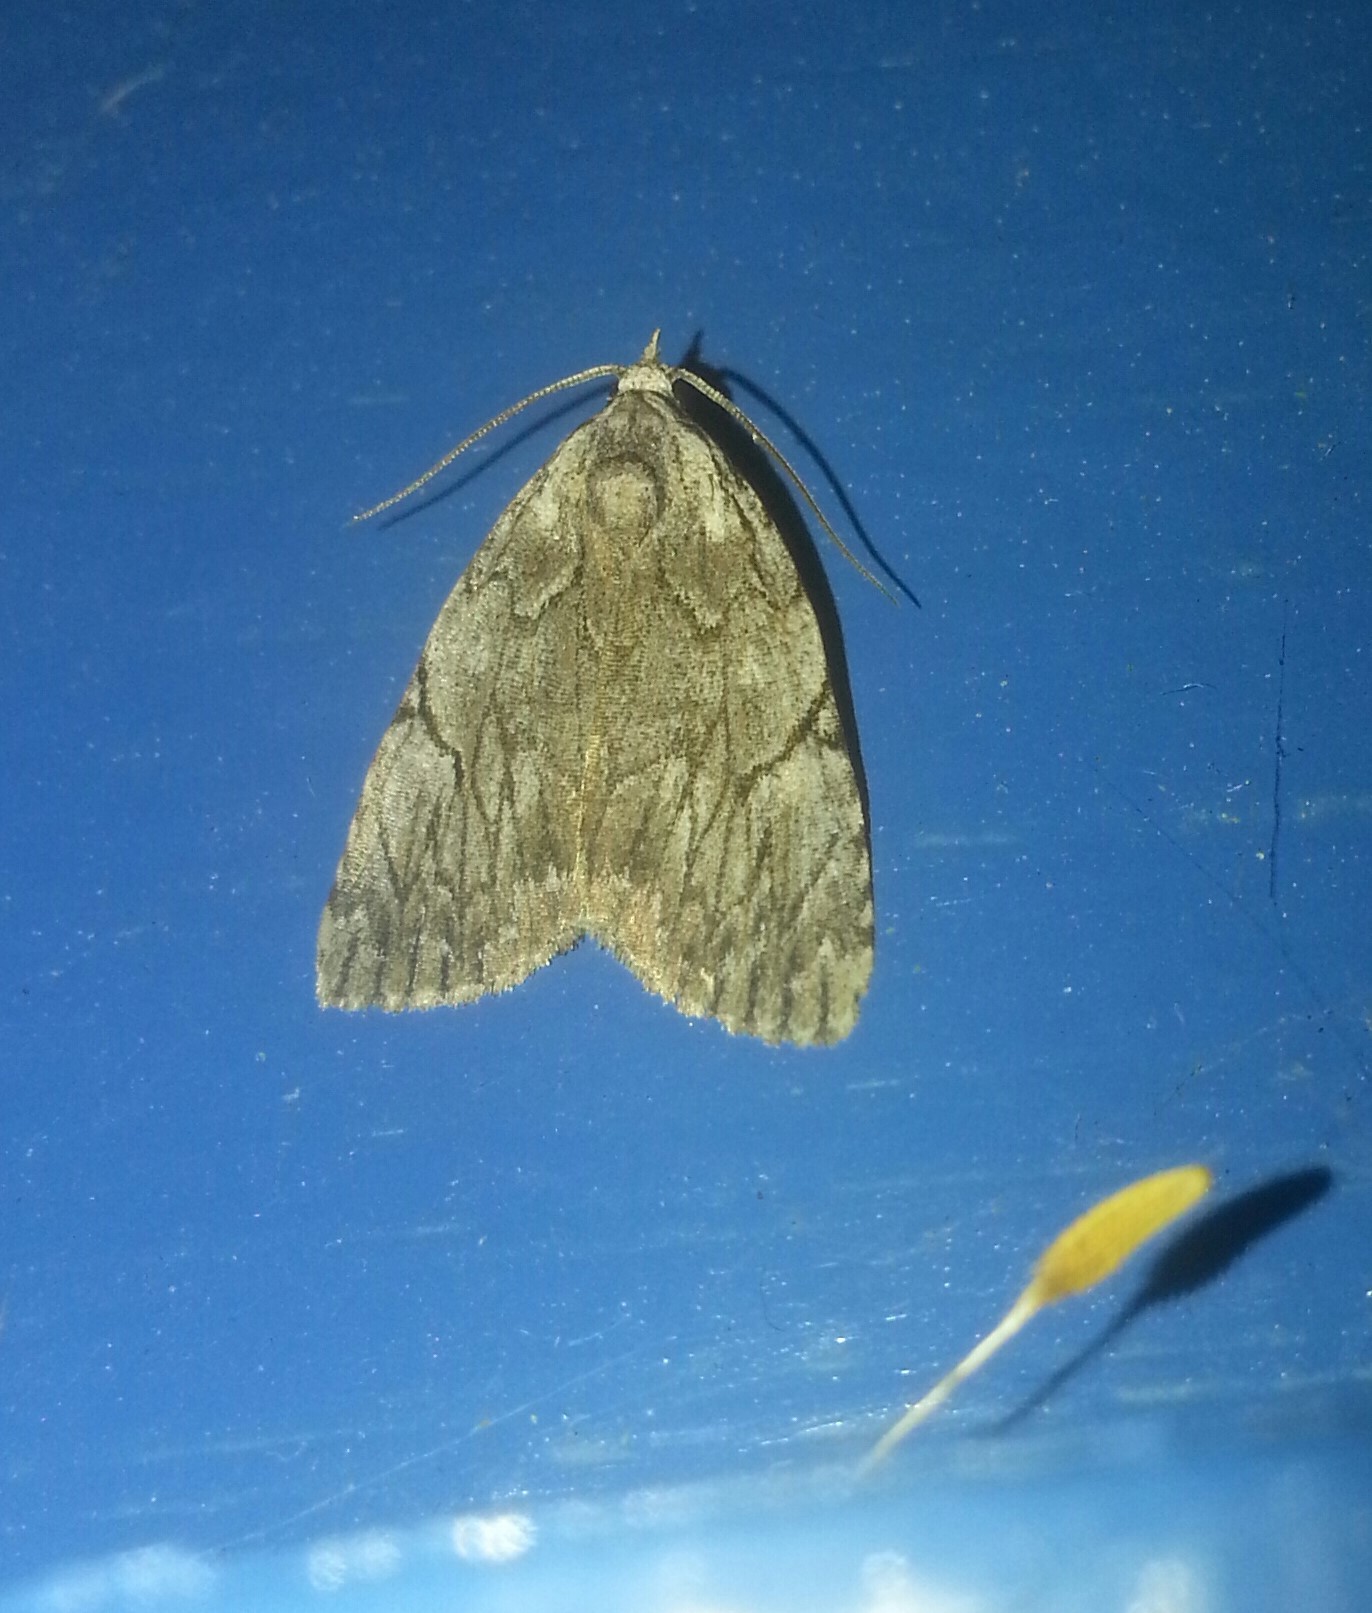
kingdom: Animalia
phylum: Arthropoda
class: Insecta
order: Lepidoptera
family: Noctuidae
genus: Balsa
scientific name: Balsa malana
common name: Many-dotted appleworm moth
